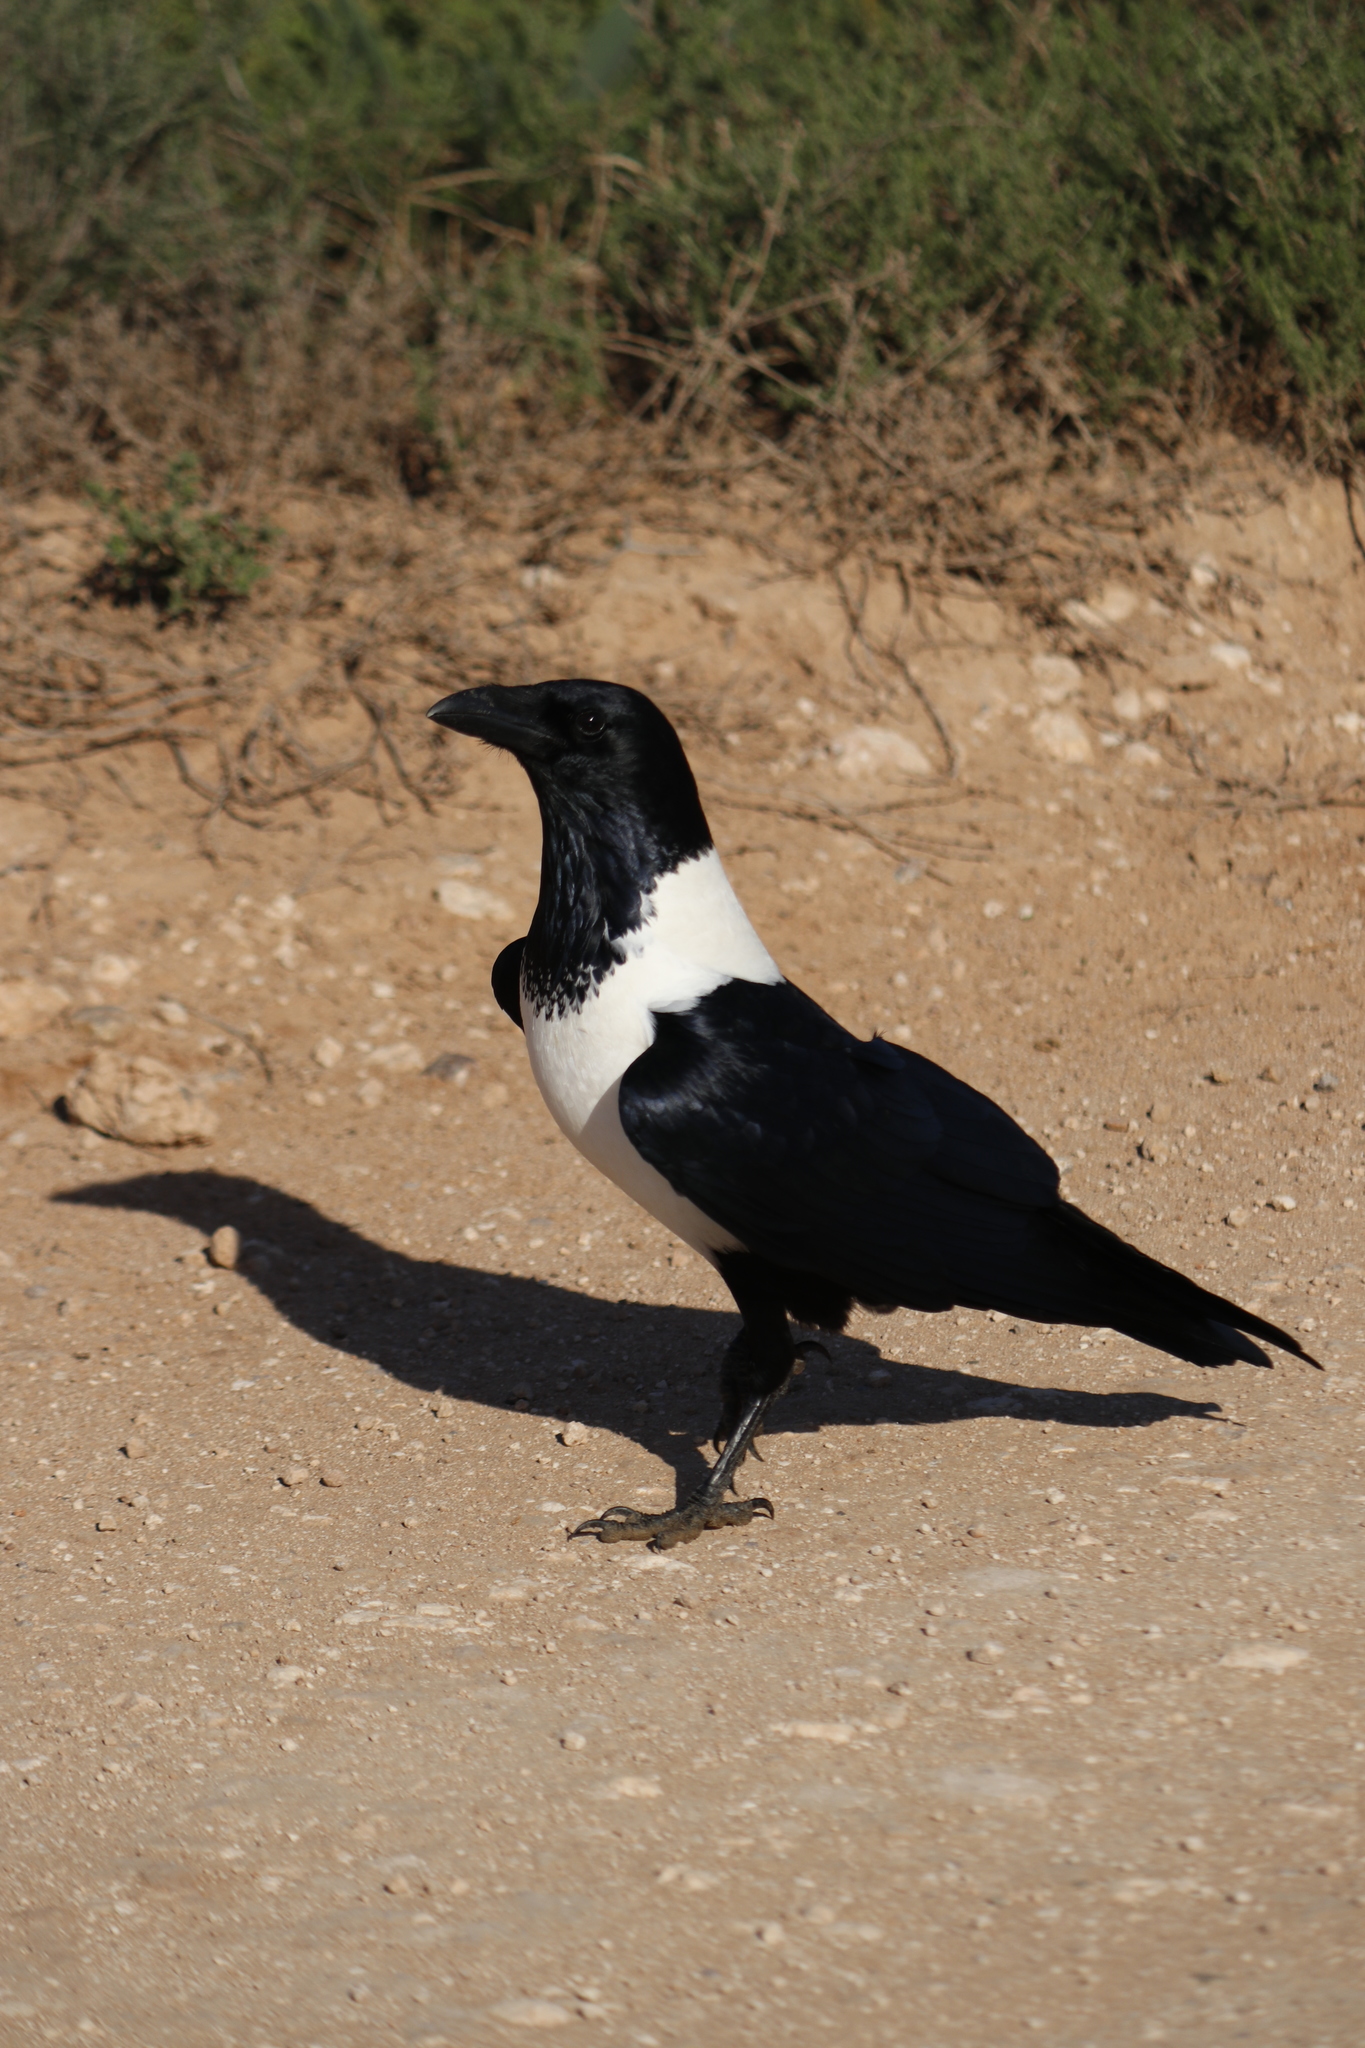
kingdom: Animalia
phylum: Chordata
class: Aves
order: Passeriformes
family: Corvidae
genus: Corvus
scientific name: Corvus albus
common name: Pied crow
